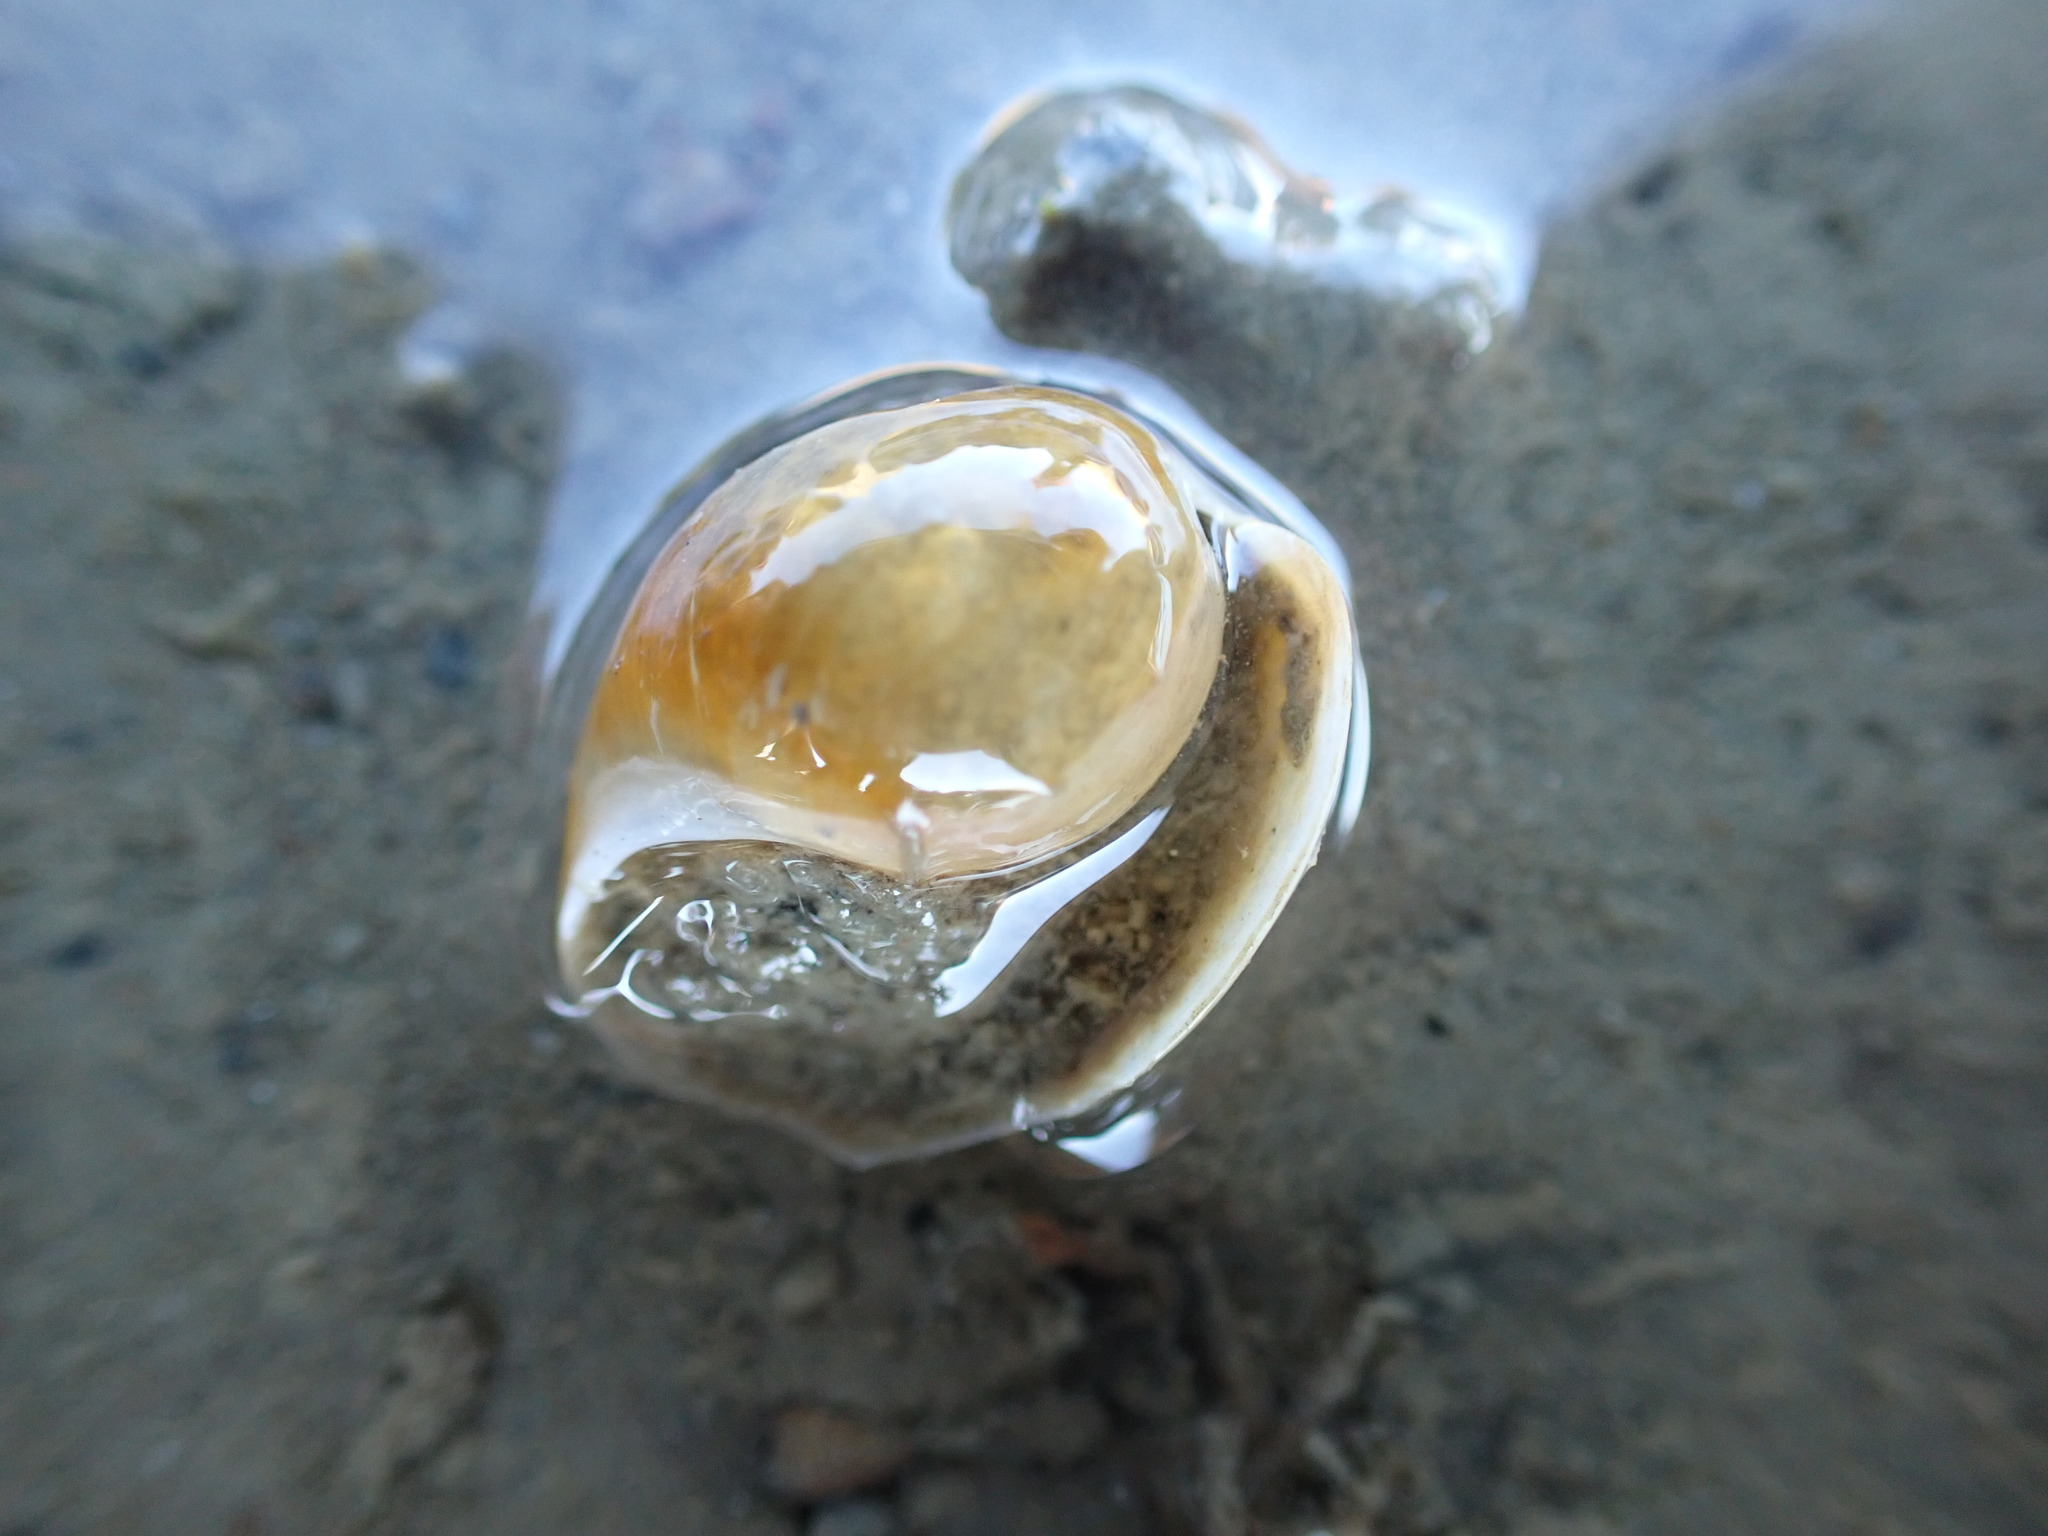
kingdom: Animalia
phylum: Mollusca
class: Gastropoda
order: Cephalaspidea
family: Haminoeidae
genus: Papawera
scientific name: Papawera zelandiae
